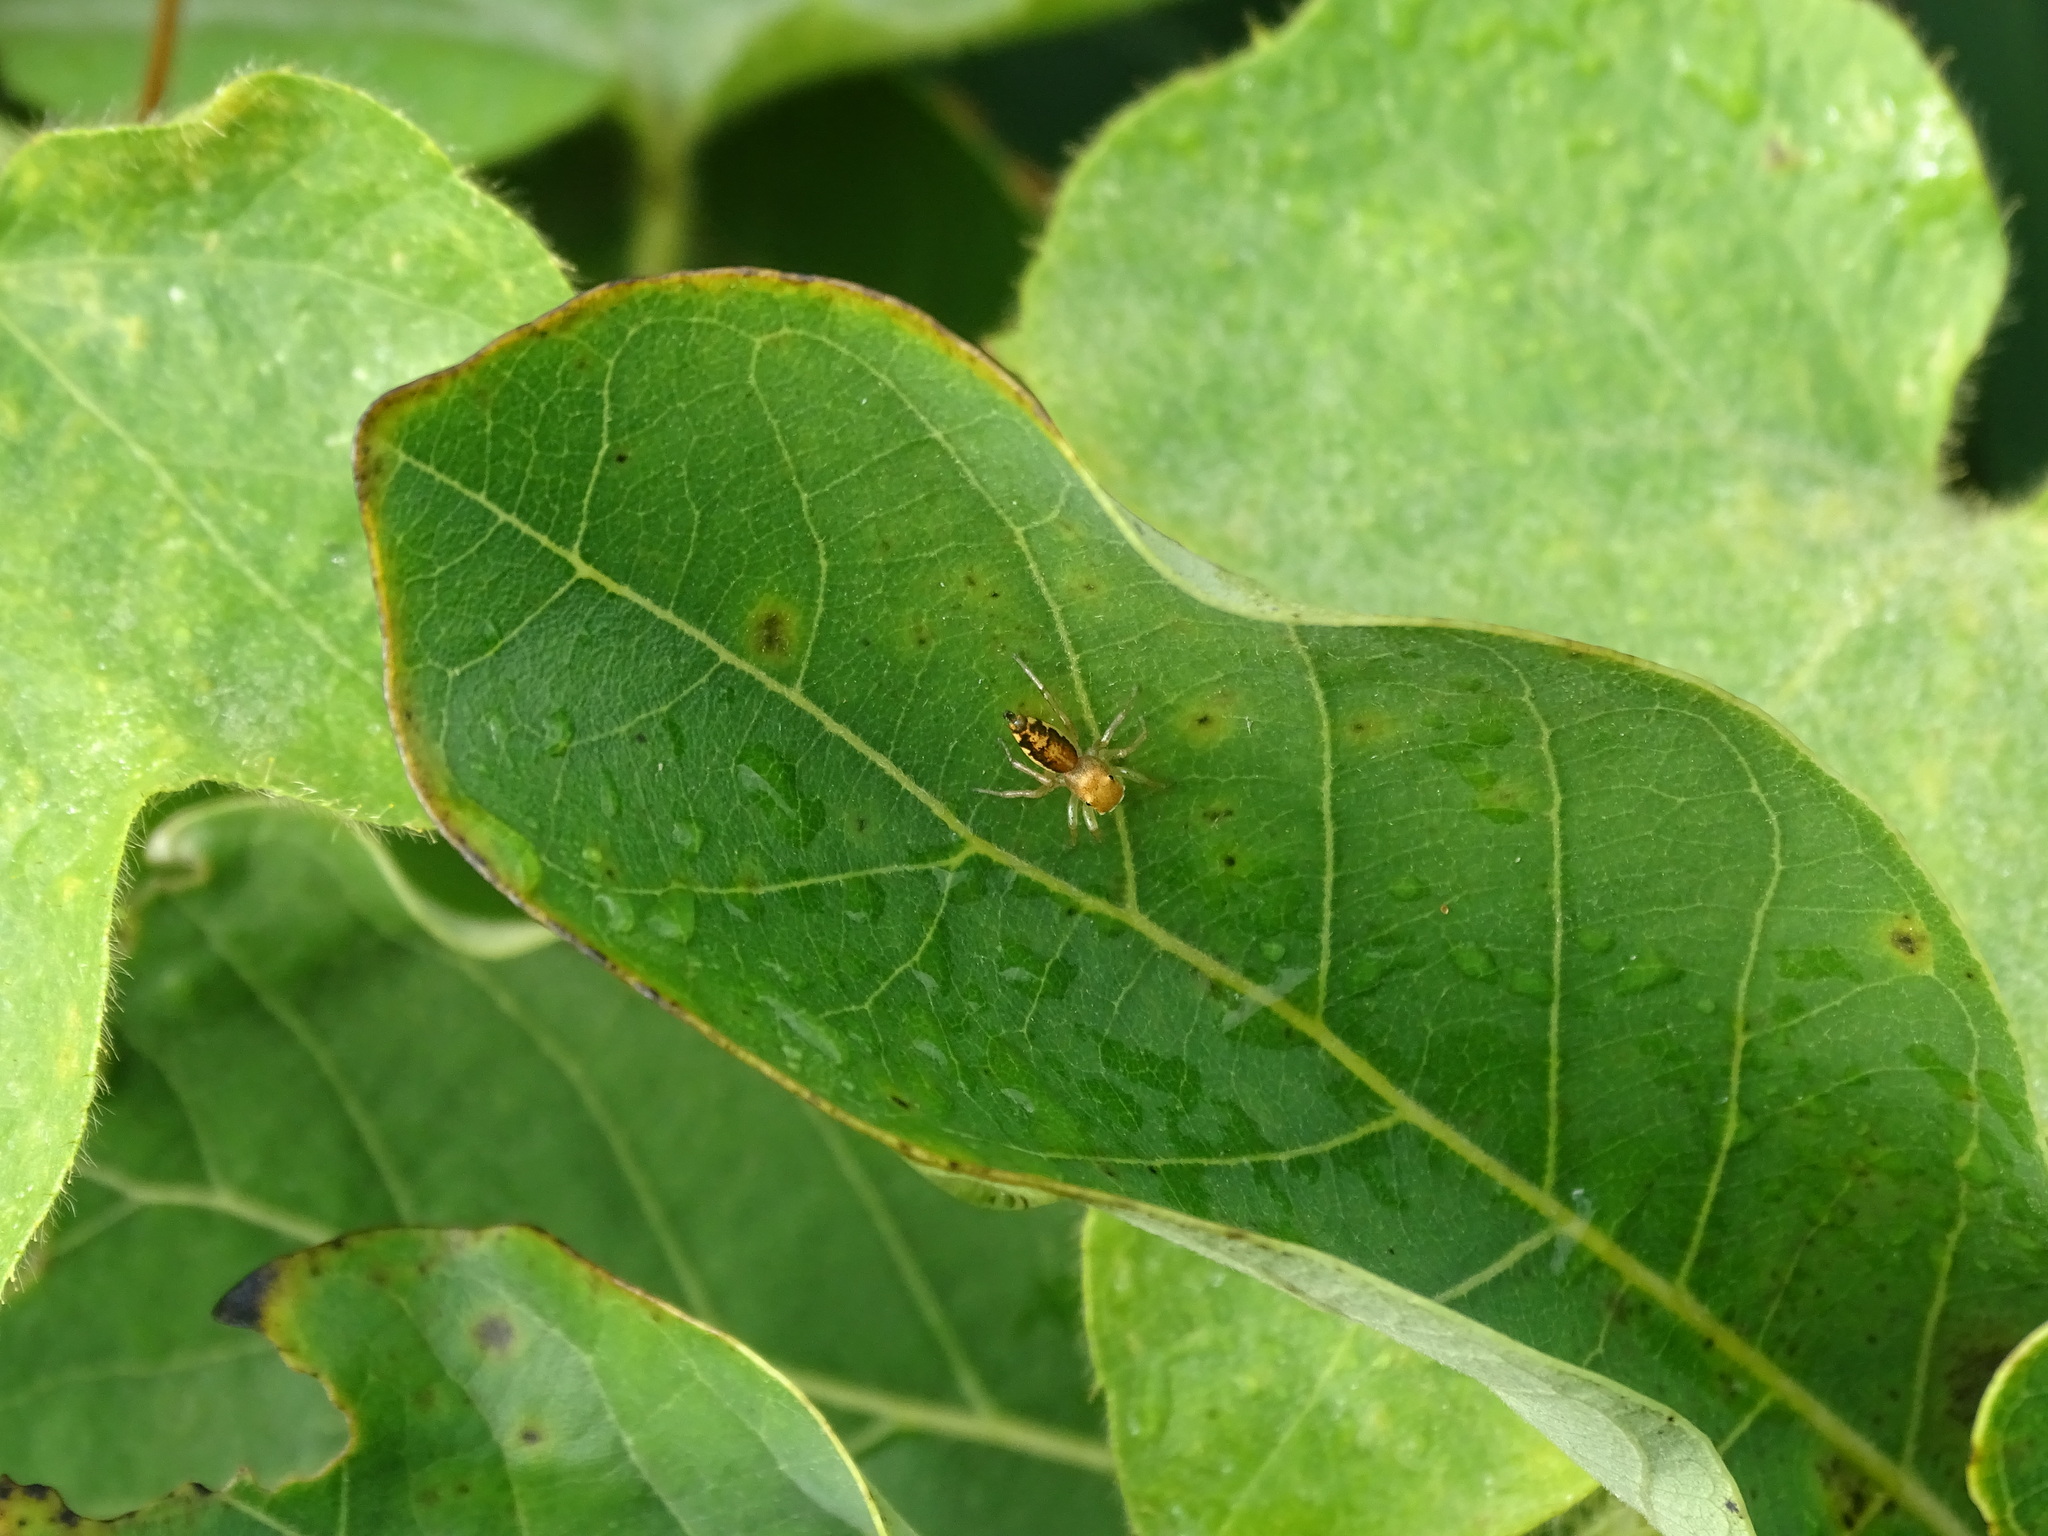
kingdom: Animalia
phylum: Arthropoda
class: Arachnida
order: Araneae
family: Salticidae
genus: Cosmophasis
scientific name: Cosmophasis lami
